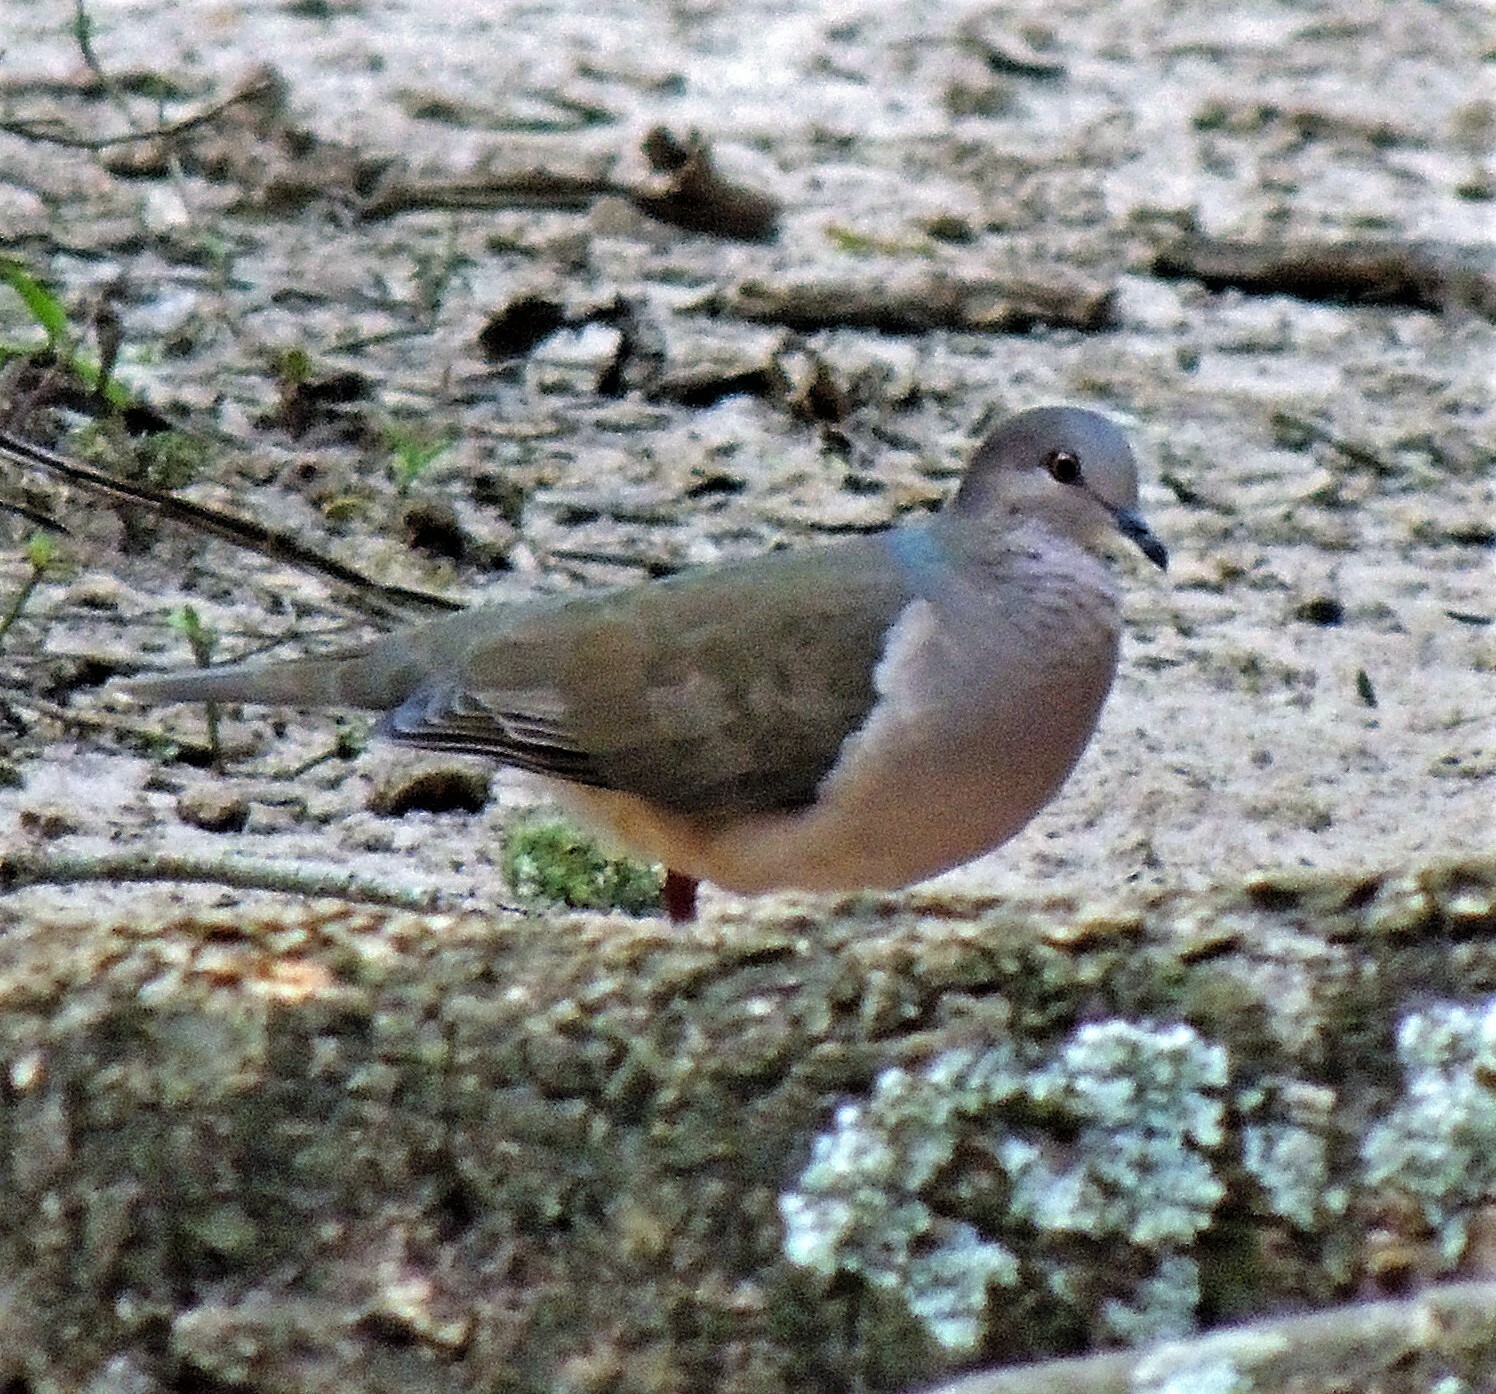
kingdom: Animalia
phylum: Chordata
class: Aves
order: Columbiformes
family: Columbidae
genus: Leptotila
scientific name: Leptotila verreauxi
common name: White-tipped dove
